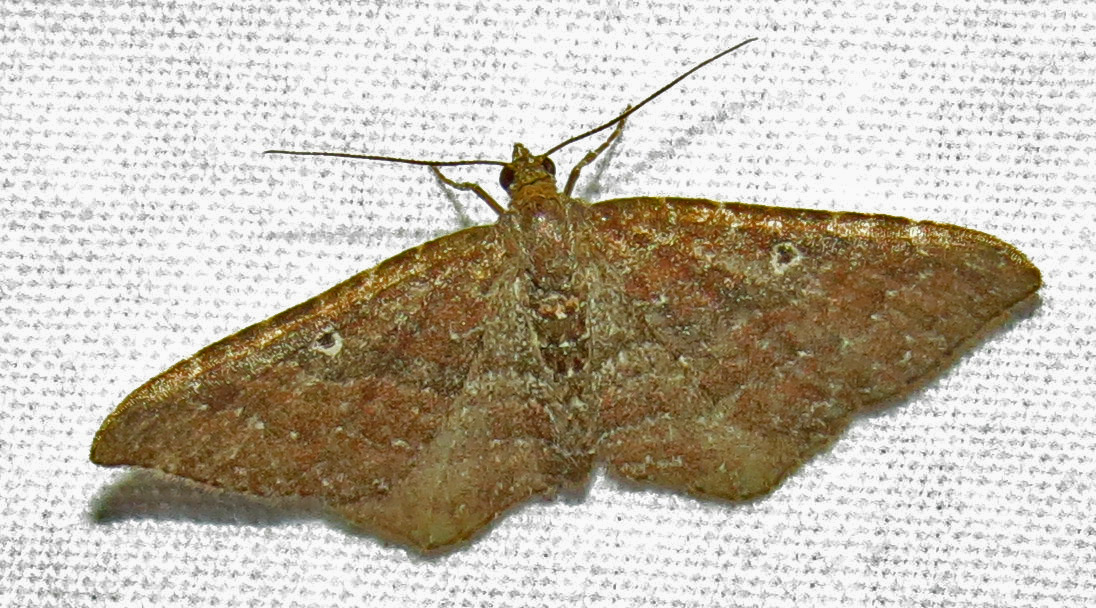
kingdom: Animalia
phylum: Arthropoda
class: Insecta
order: Lepidoptera
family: Geometridae
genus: Orthonama
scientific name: Orthonama obstipata
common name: The gem
